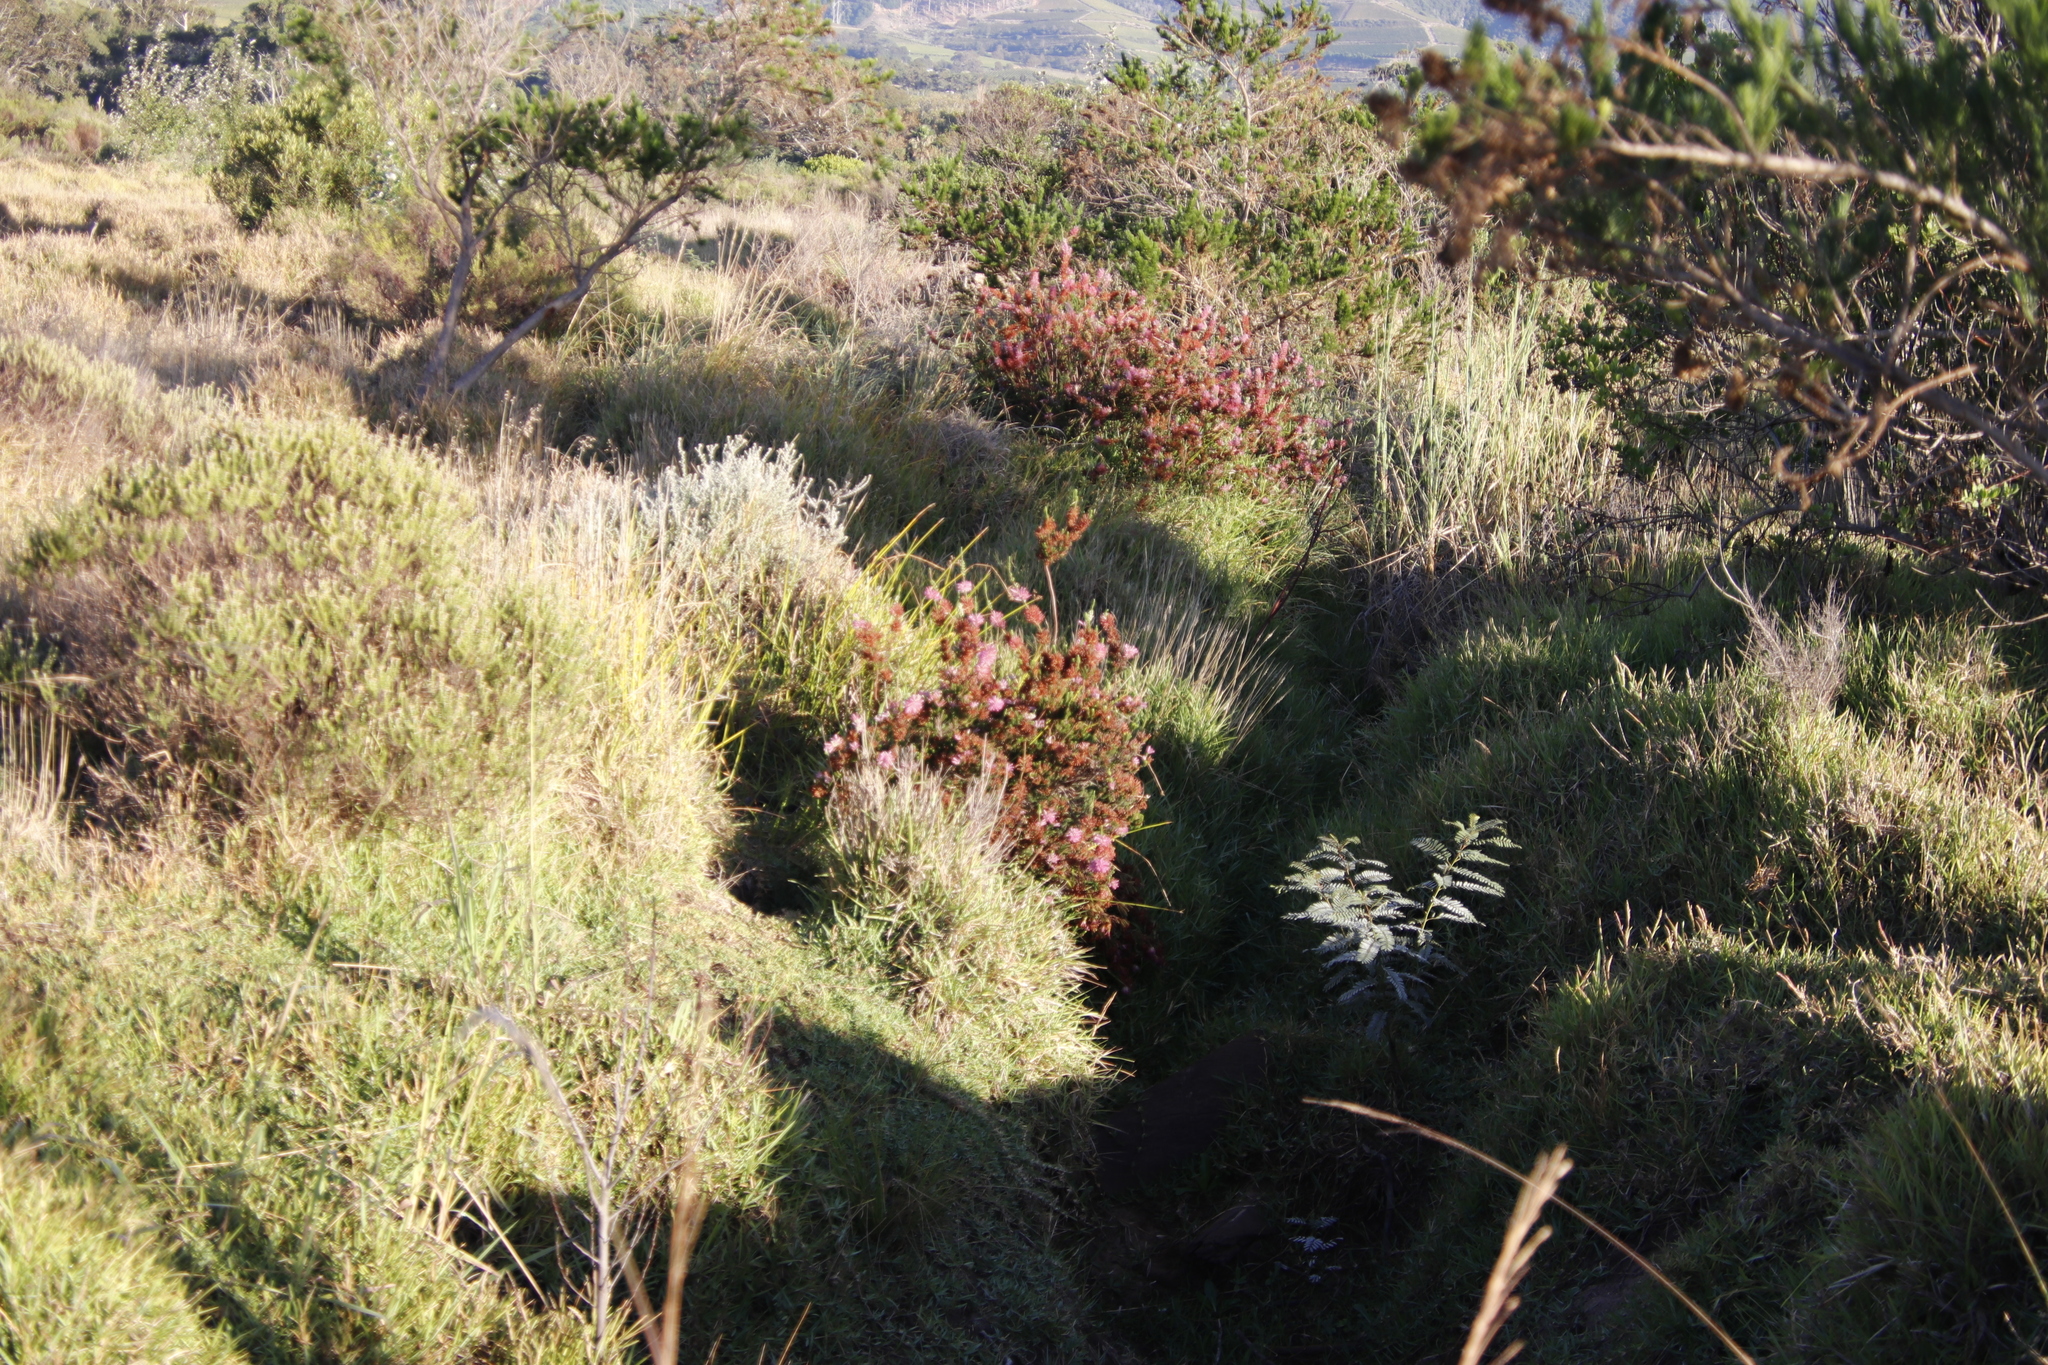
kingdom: Plantae
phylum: Tracheophyta
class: Magnoliopsida
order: Ericales
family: Ericaceae
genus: Erica
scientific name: Erica verticillata
